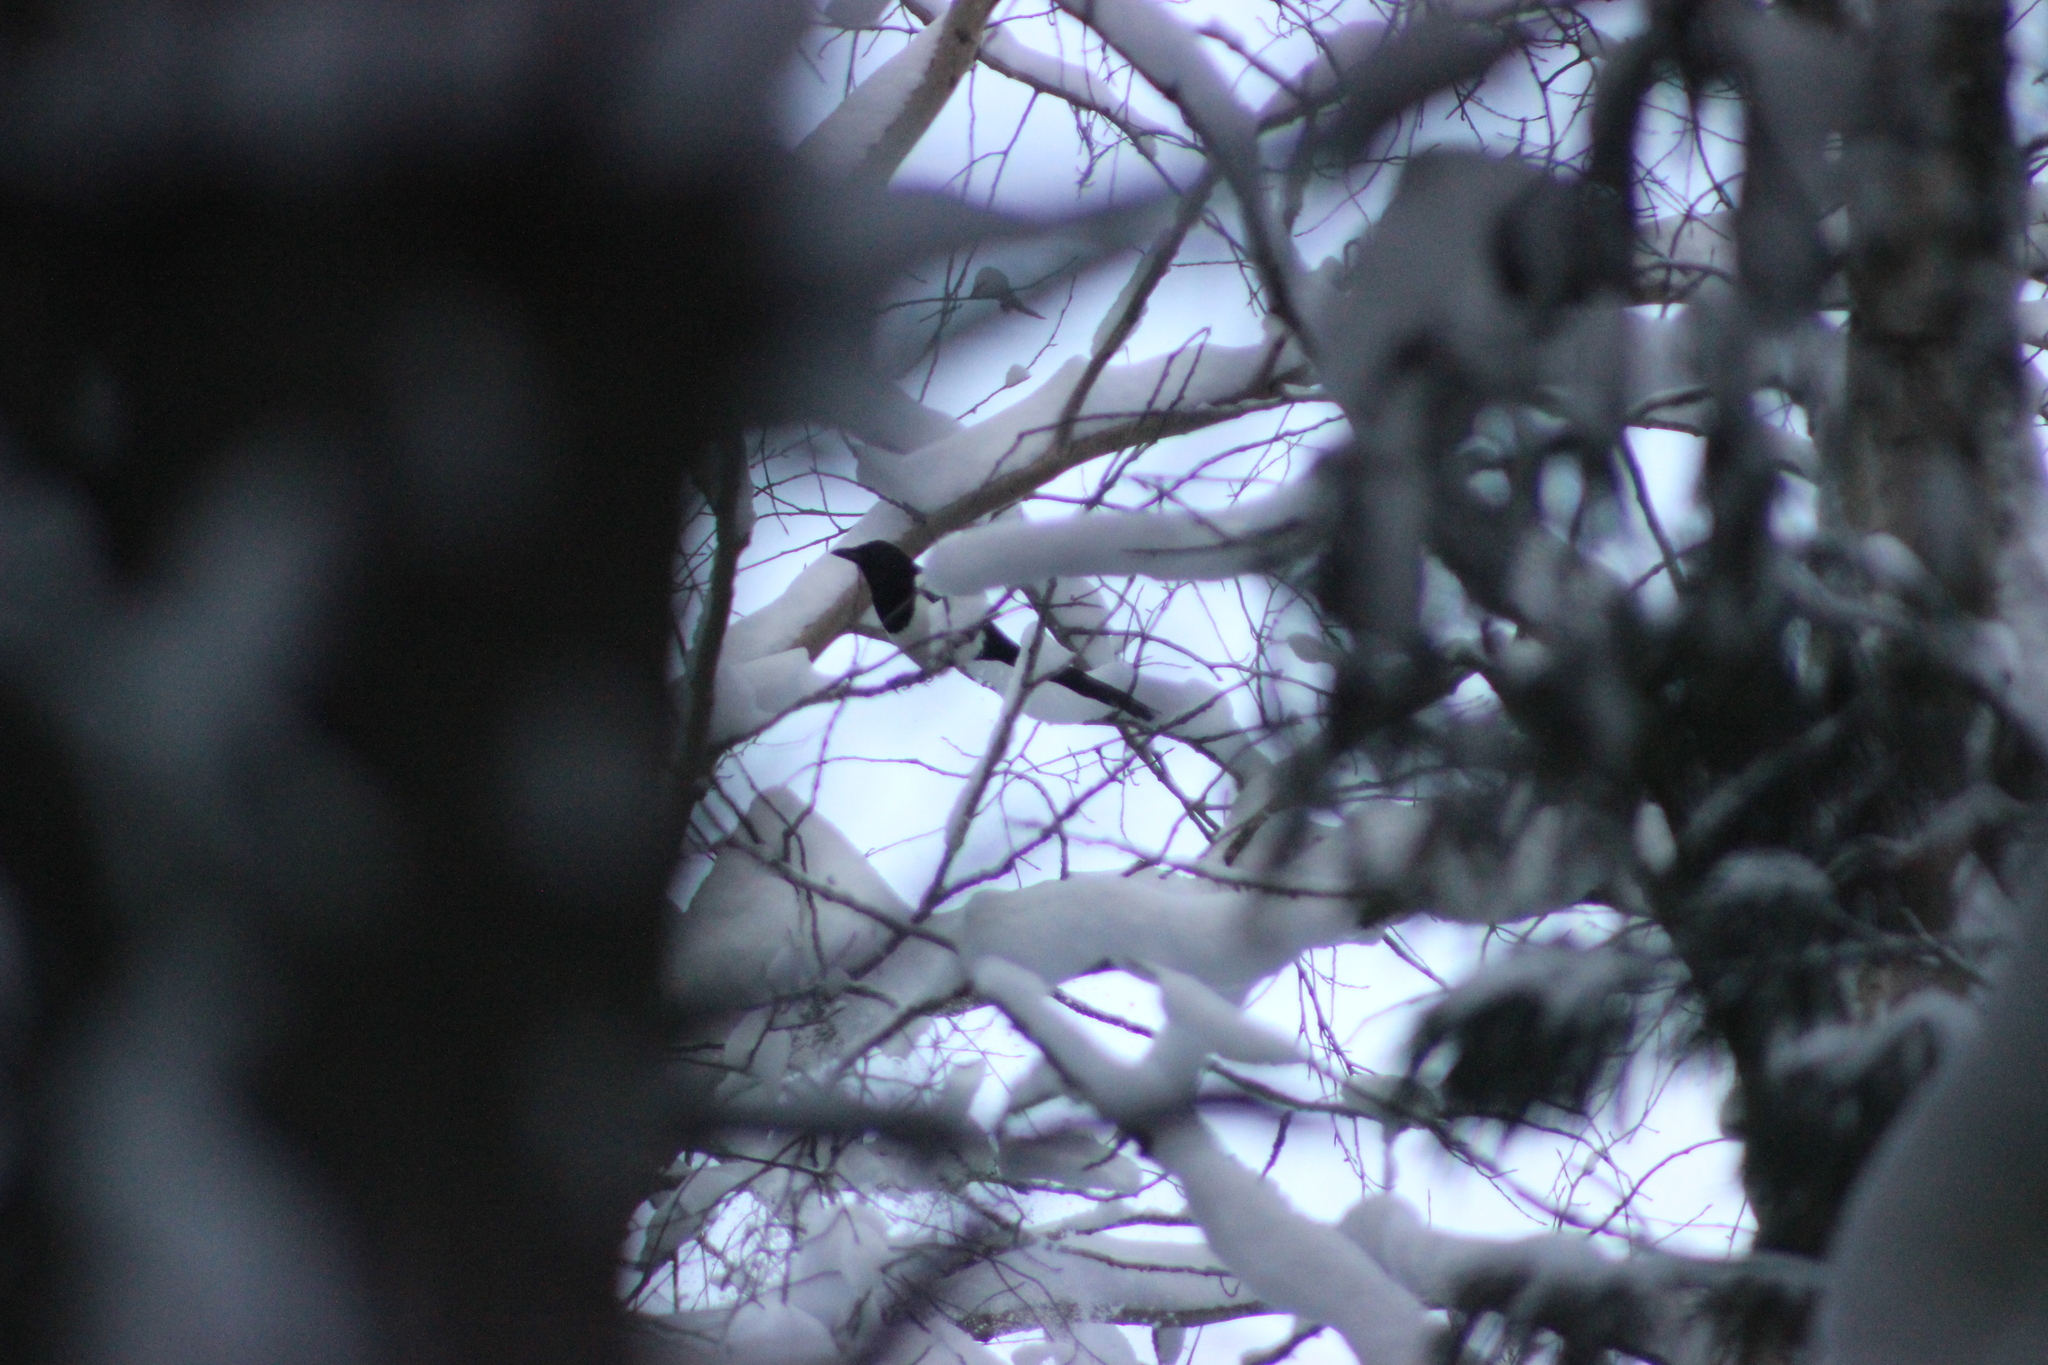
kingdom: Animalia
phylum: Chordata
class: Aves
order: Passeriformes
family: Corvidae
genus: Pica
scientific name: Pica pica
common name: Eurasian magpie
